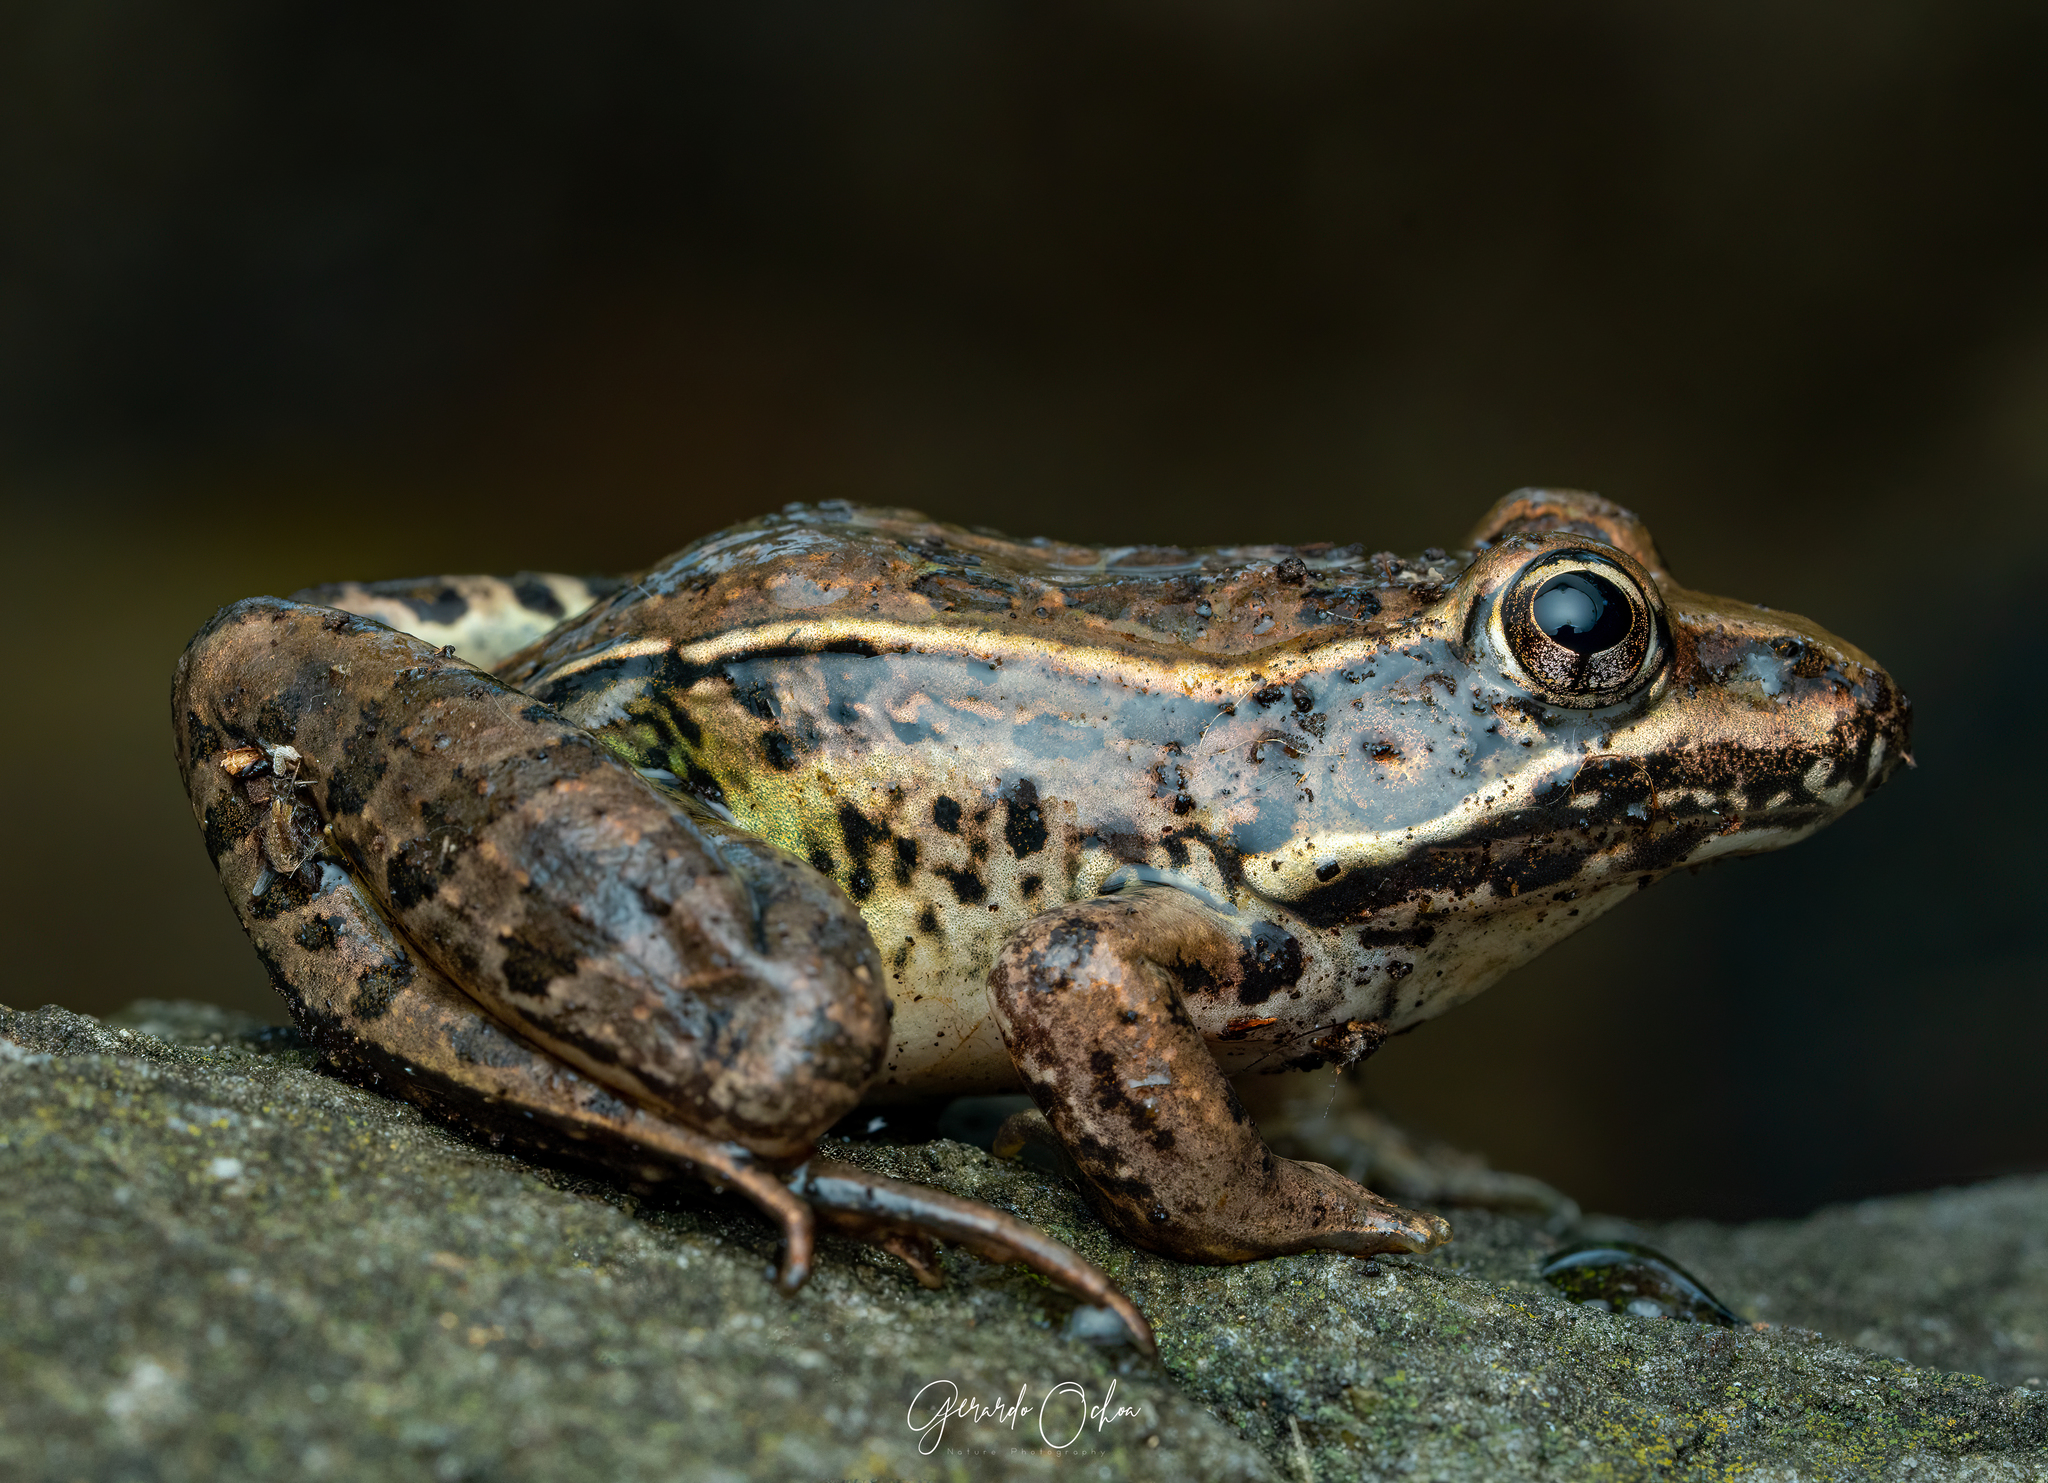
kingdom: Animalia
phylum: Chordata
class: Amphibia
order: Anura
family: Ranidae
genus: Lithobates
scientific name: Lithobates neovolcanicus
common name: Transverse volcanic leopard frog
